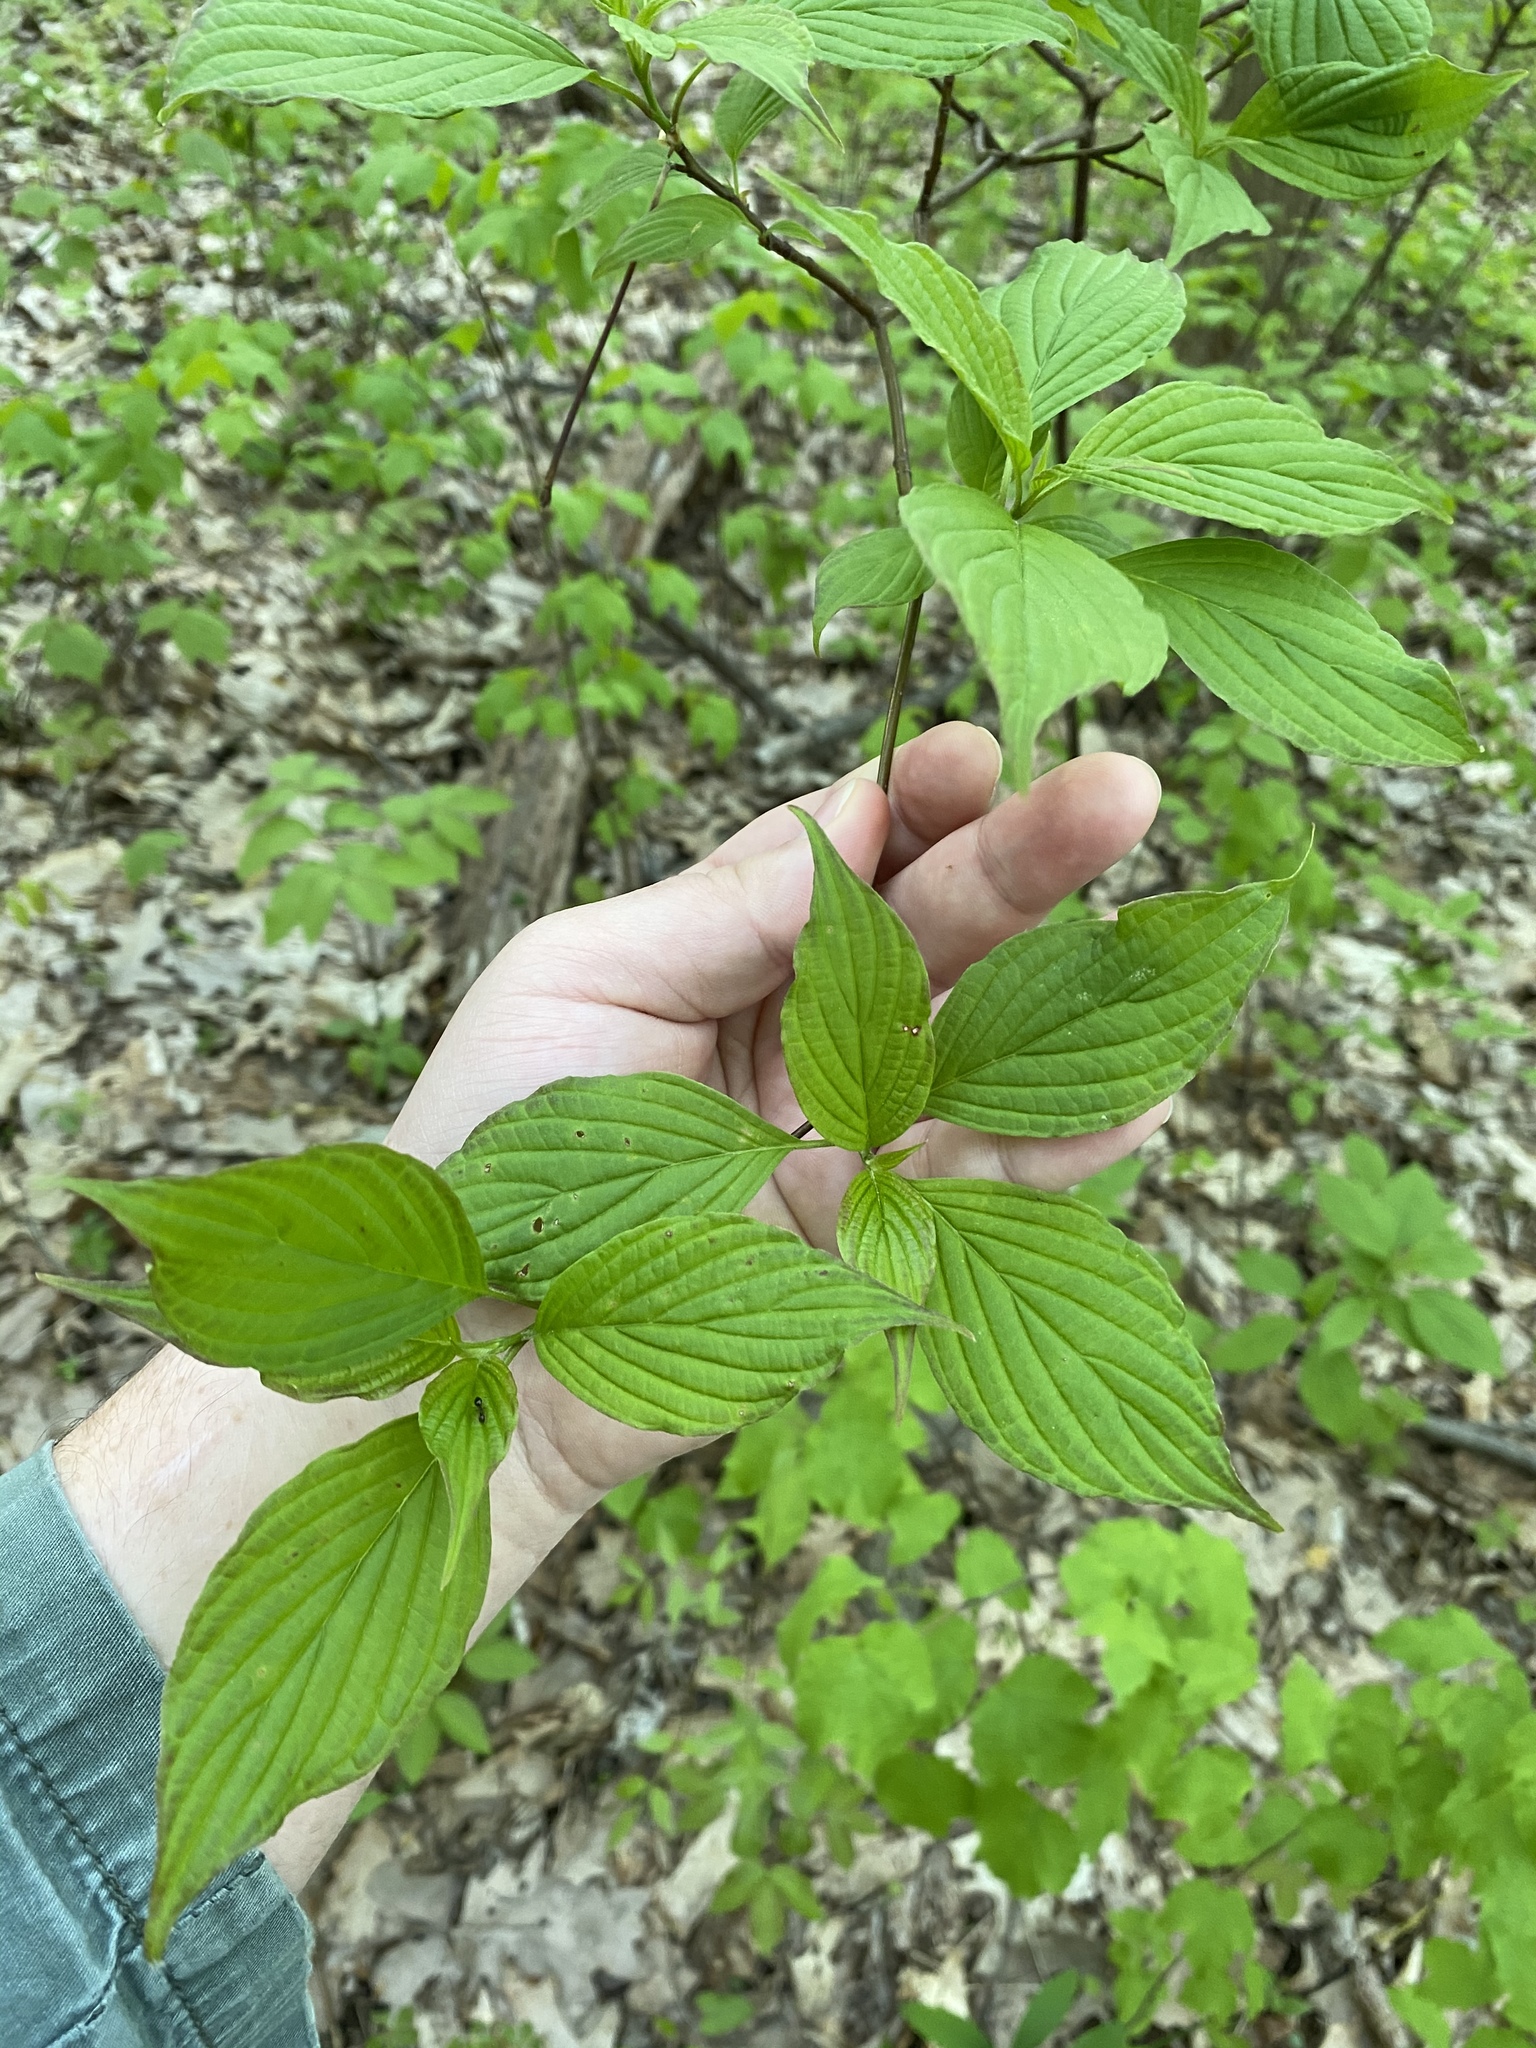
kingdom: Plantae
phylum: Tracheophyta
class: Magnoliopsida
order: Cornales
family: Cornaceae
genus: Cornus
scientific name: Cornus alternifolia
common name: Pagoda dogwood
